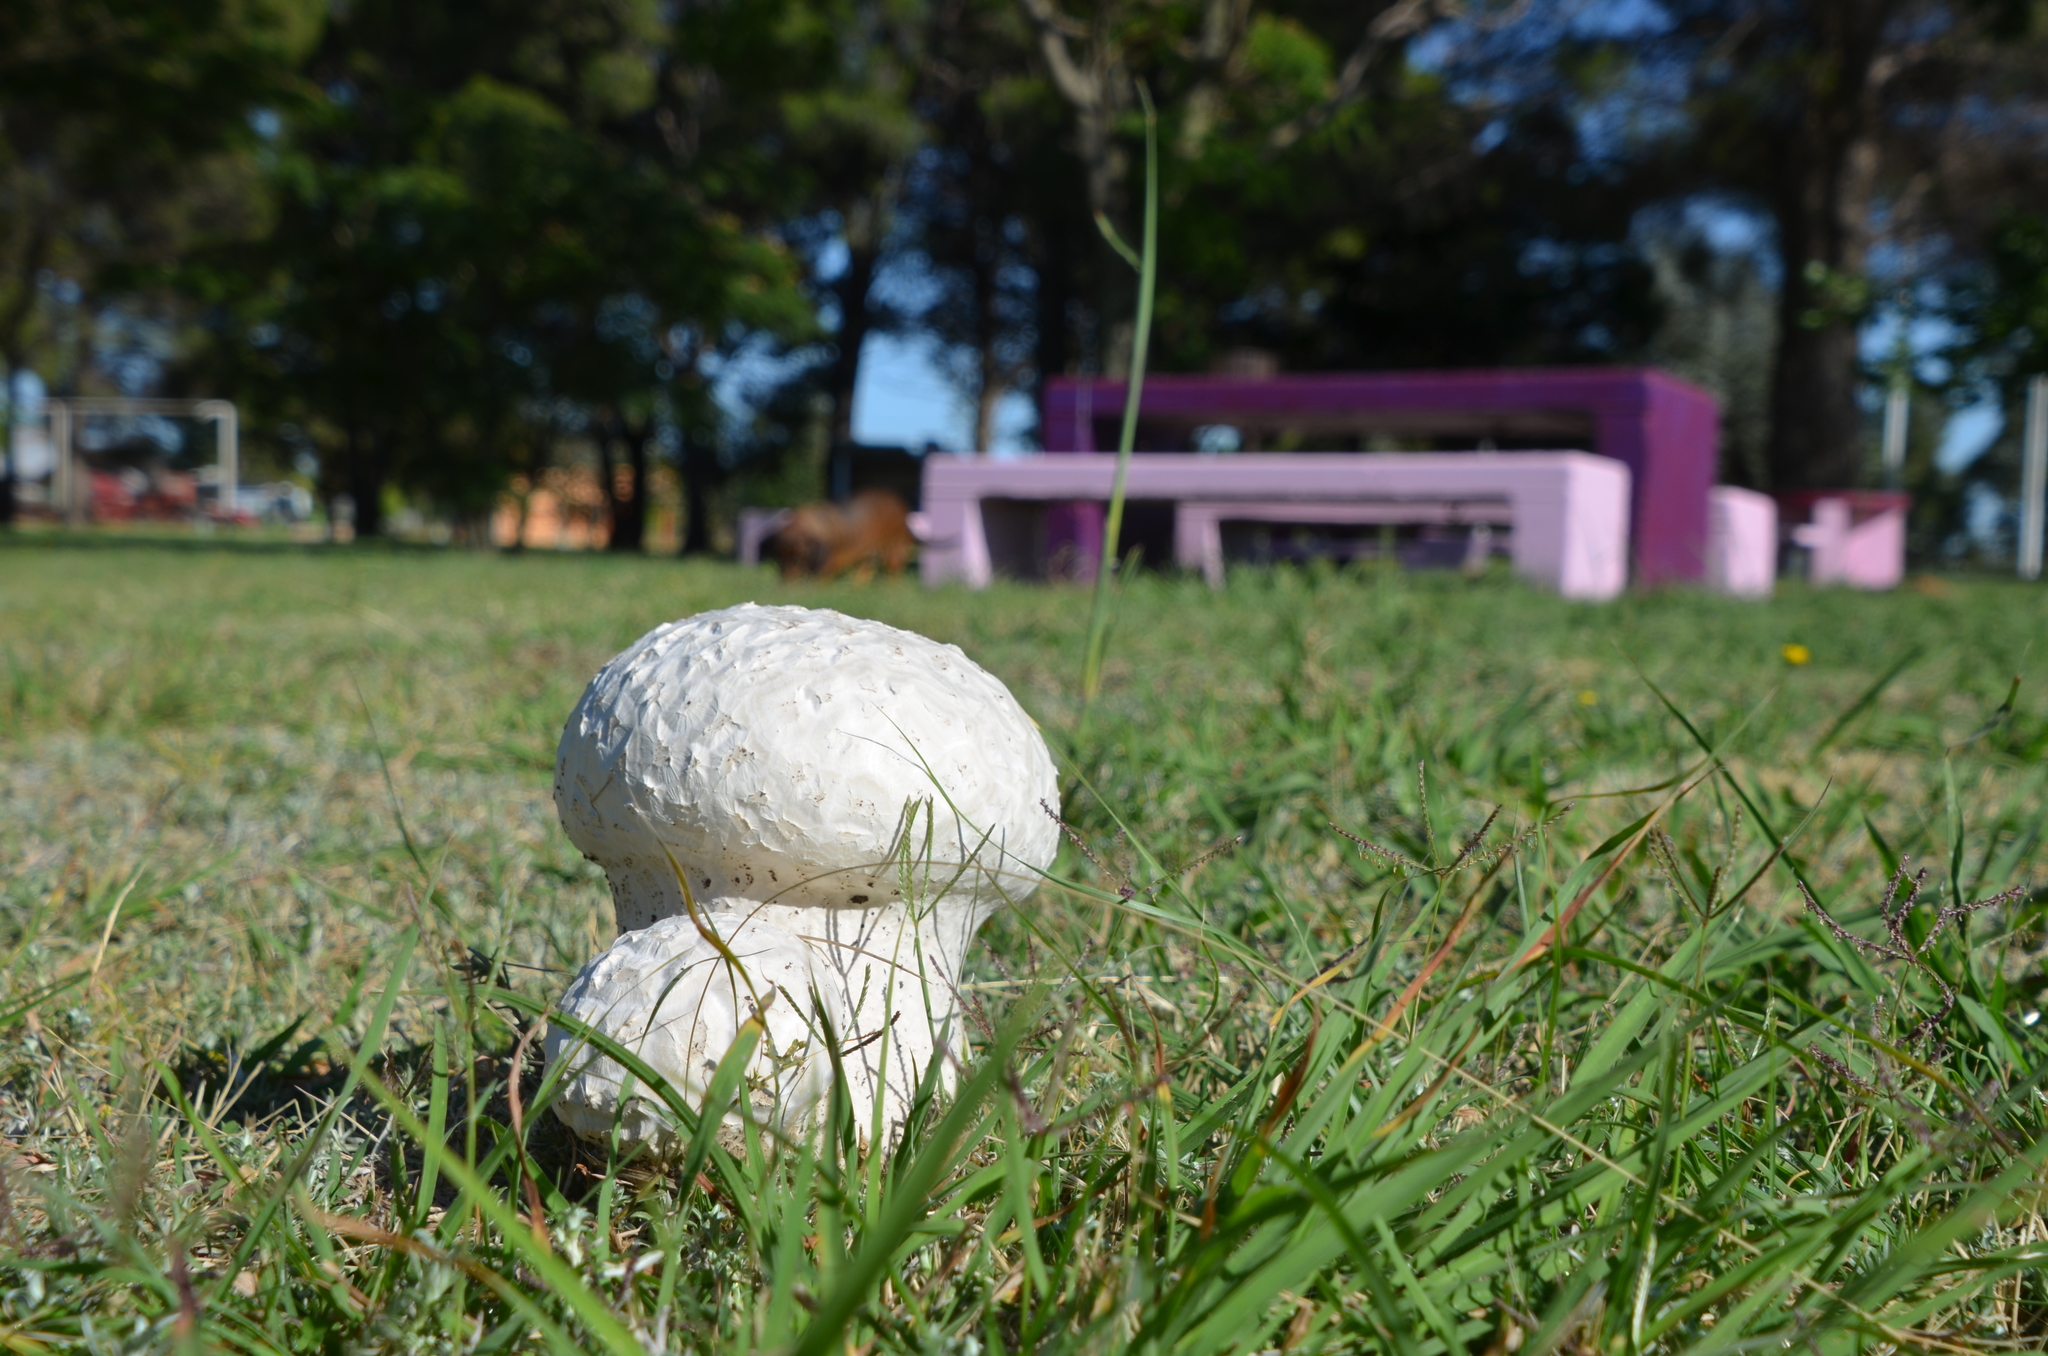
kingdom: Fungi
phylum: Basidiomycota
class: Agaricomycetes
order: Agaricales
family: Lycoperdaceae
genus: Calvatia
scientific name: Calvatia cyathiformis
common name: Purple-spored puffball
